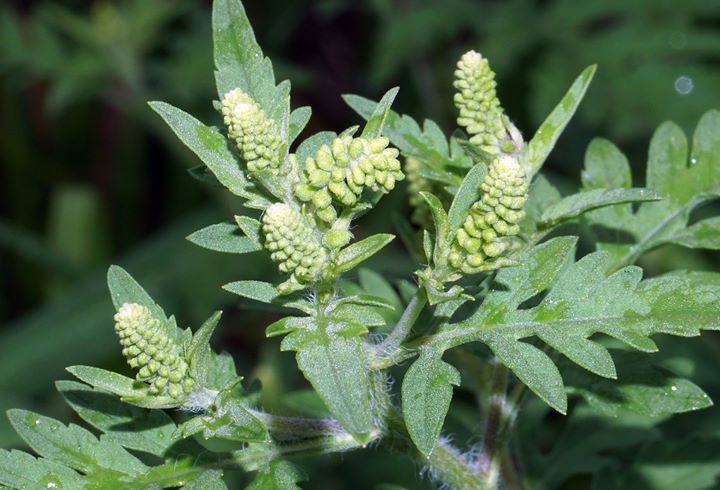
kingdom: Plantae
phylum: Tracheophyta
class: Magnoliopsida
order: Asterales
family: Asteraceae
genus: Ambrosia
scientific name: Ambrosia artemisiifolia
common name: Annual ragweed
